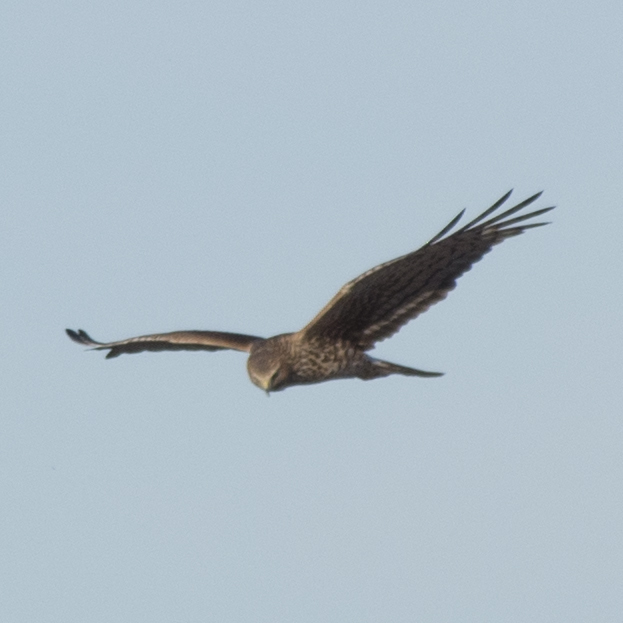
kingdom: Animalia
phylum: Chordata
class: Aves
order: Accipitriformes
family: Accipitridae
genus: Circus
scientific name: Circus cyaneus
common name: Hen harrier
